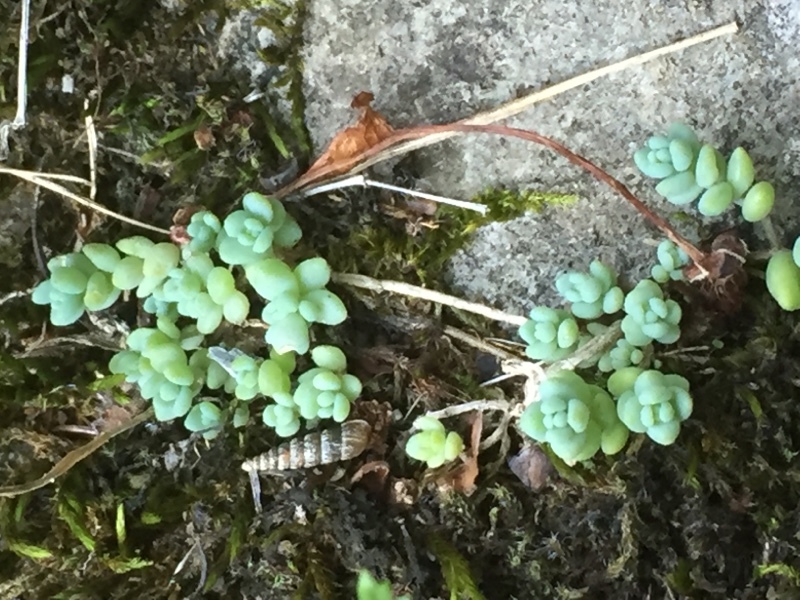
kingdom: Plantae
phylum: Tracheophyta
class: Magnoliopsida
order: Saxifragales
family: Crassulaceae
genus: Sedum
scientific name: Sedum dasyphyllum
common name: Thick-leaf stonecrop
